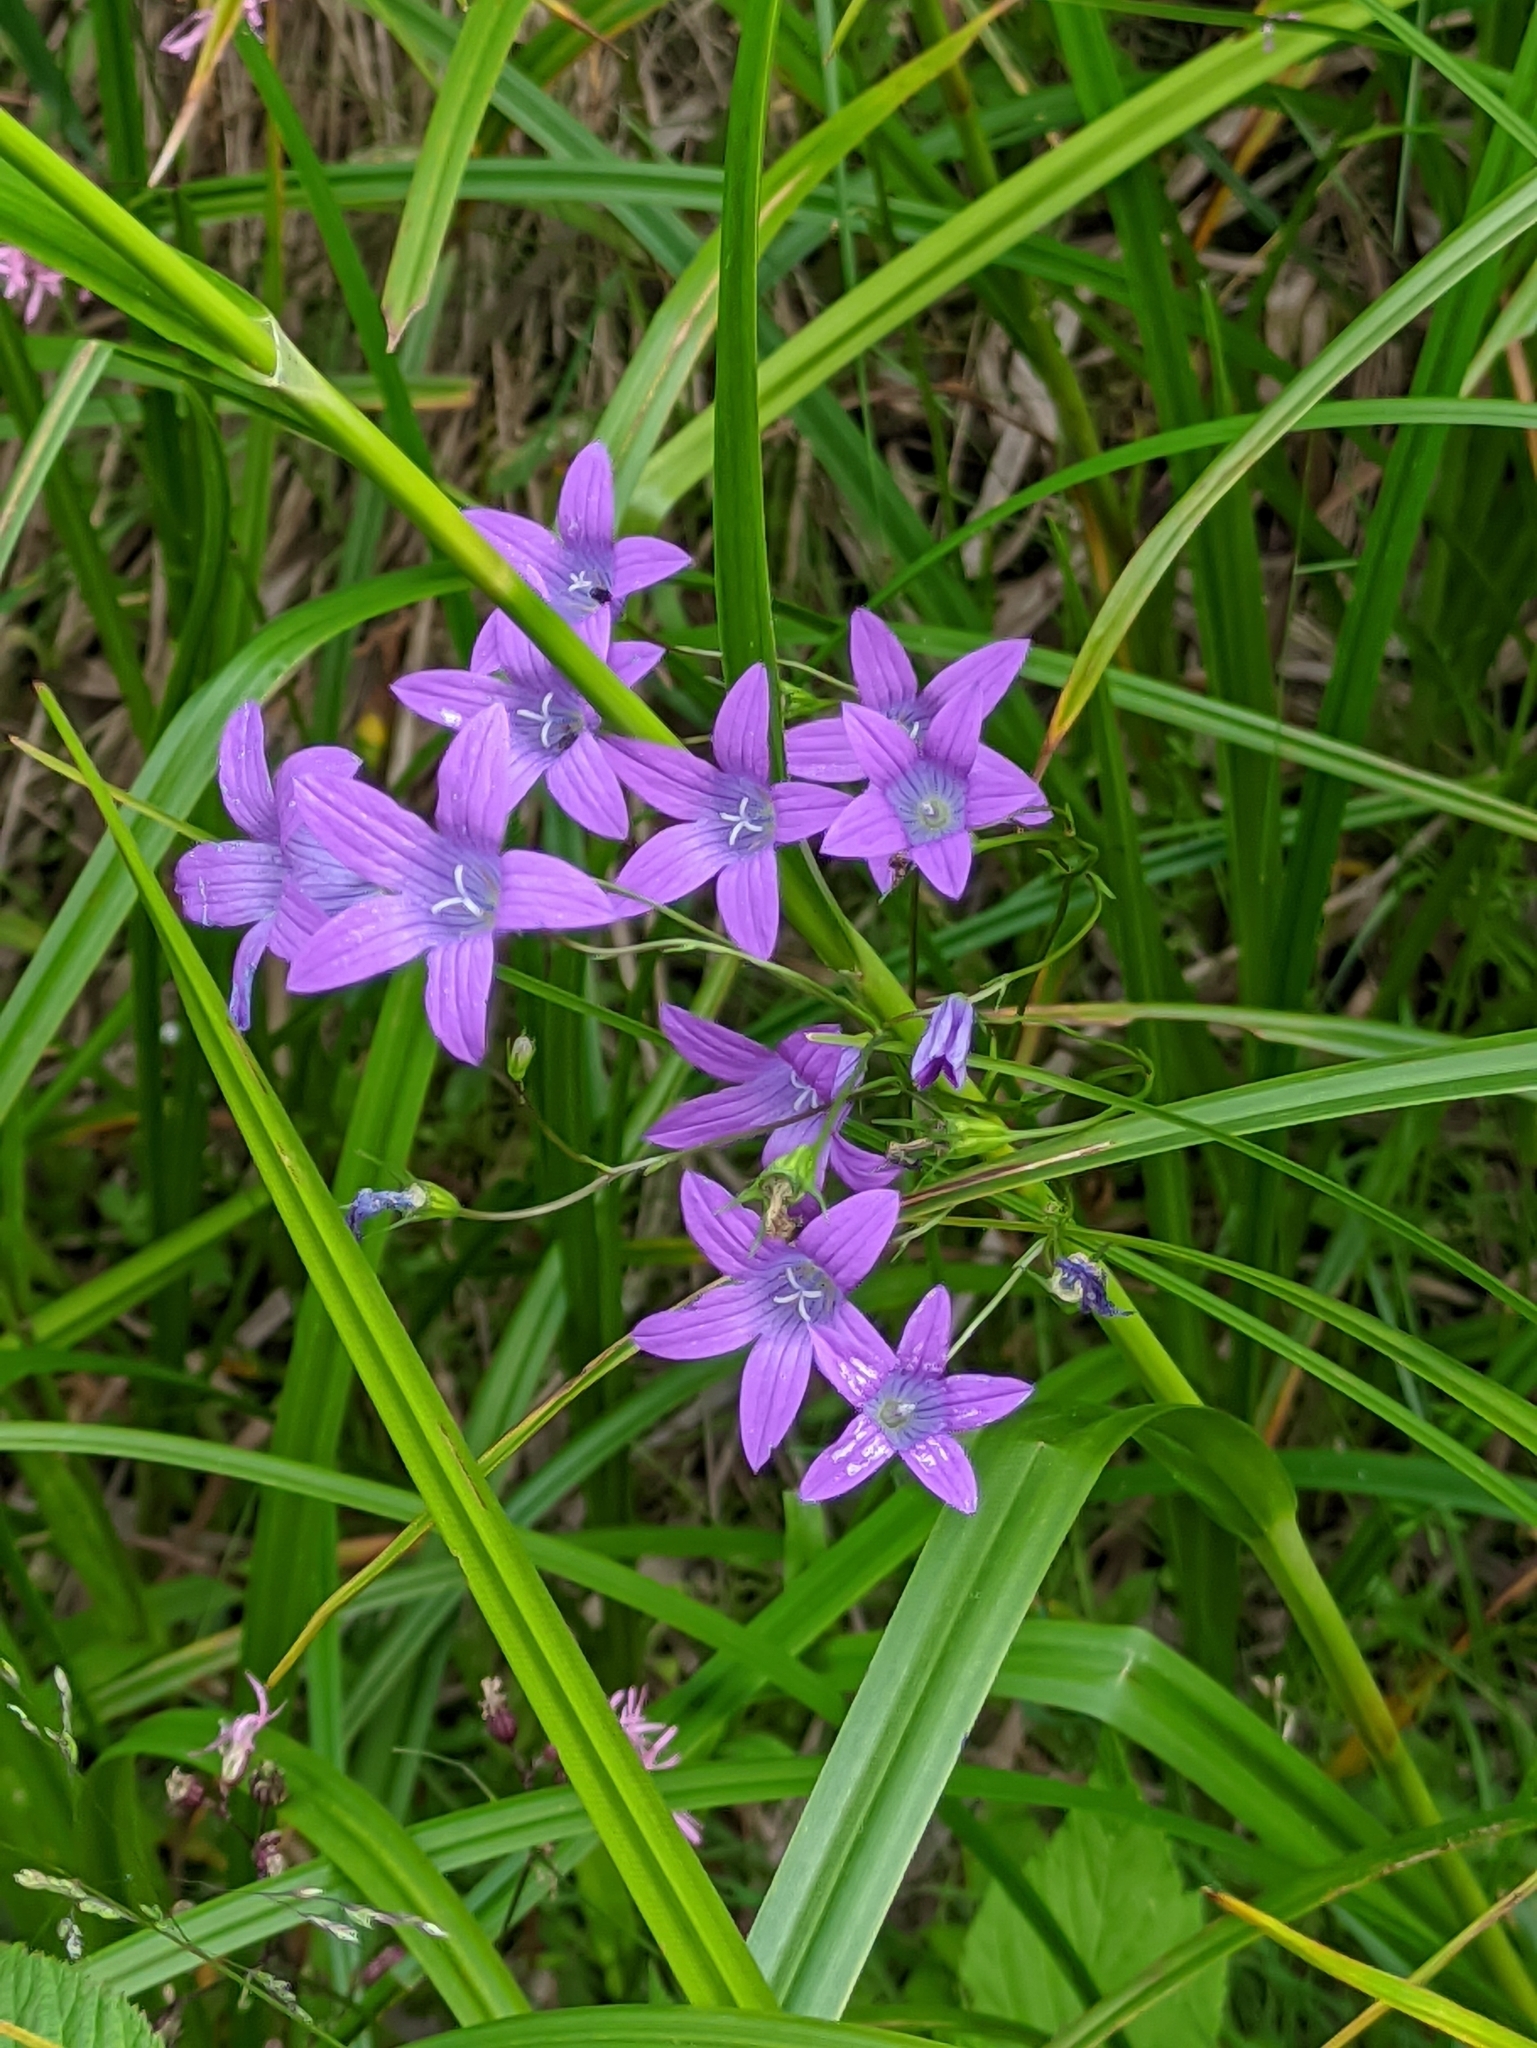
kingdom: Plantae
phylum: Tracheophyta
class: Magnoliopsida
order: Asterales
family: Campanulaceae
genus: Campanula
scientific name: Campanula patula
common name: Spreading bellflower
